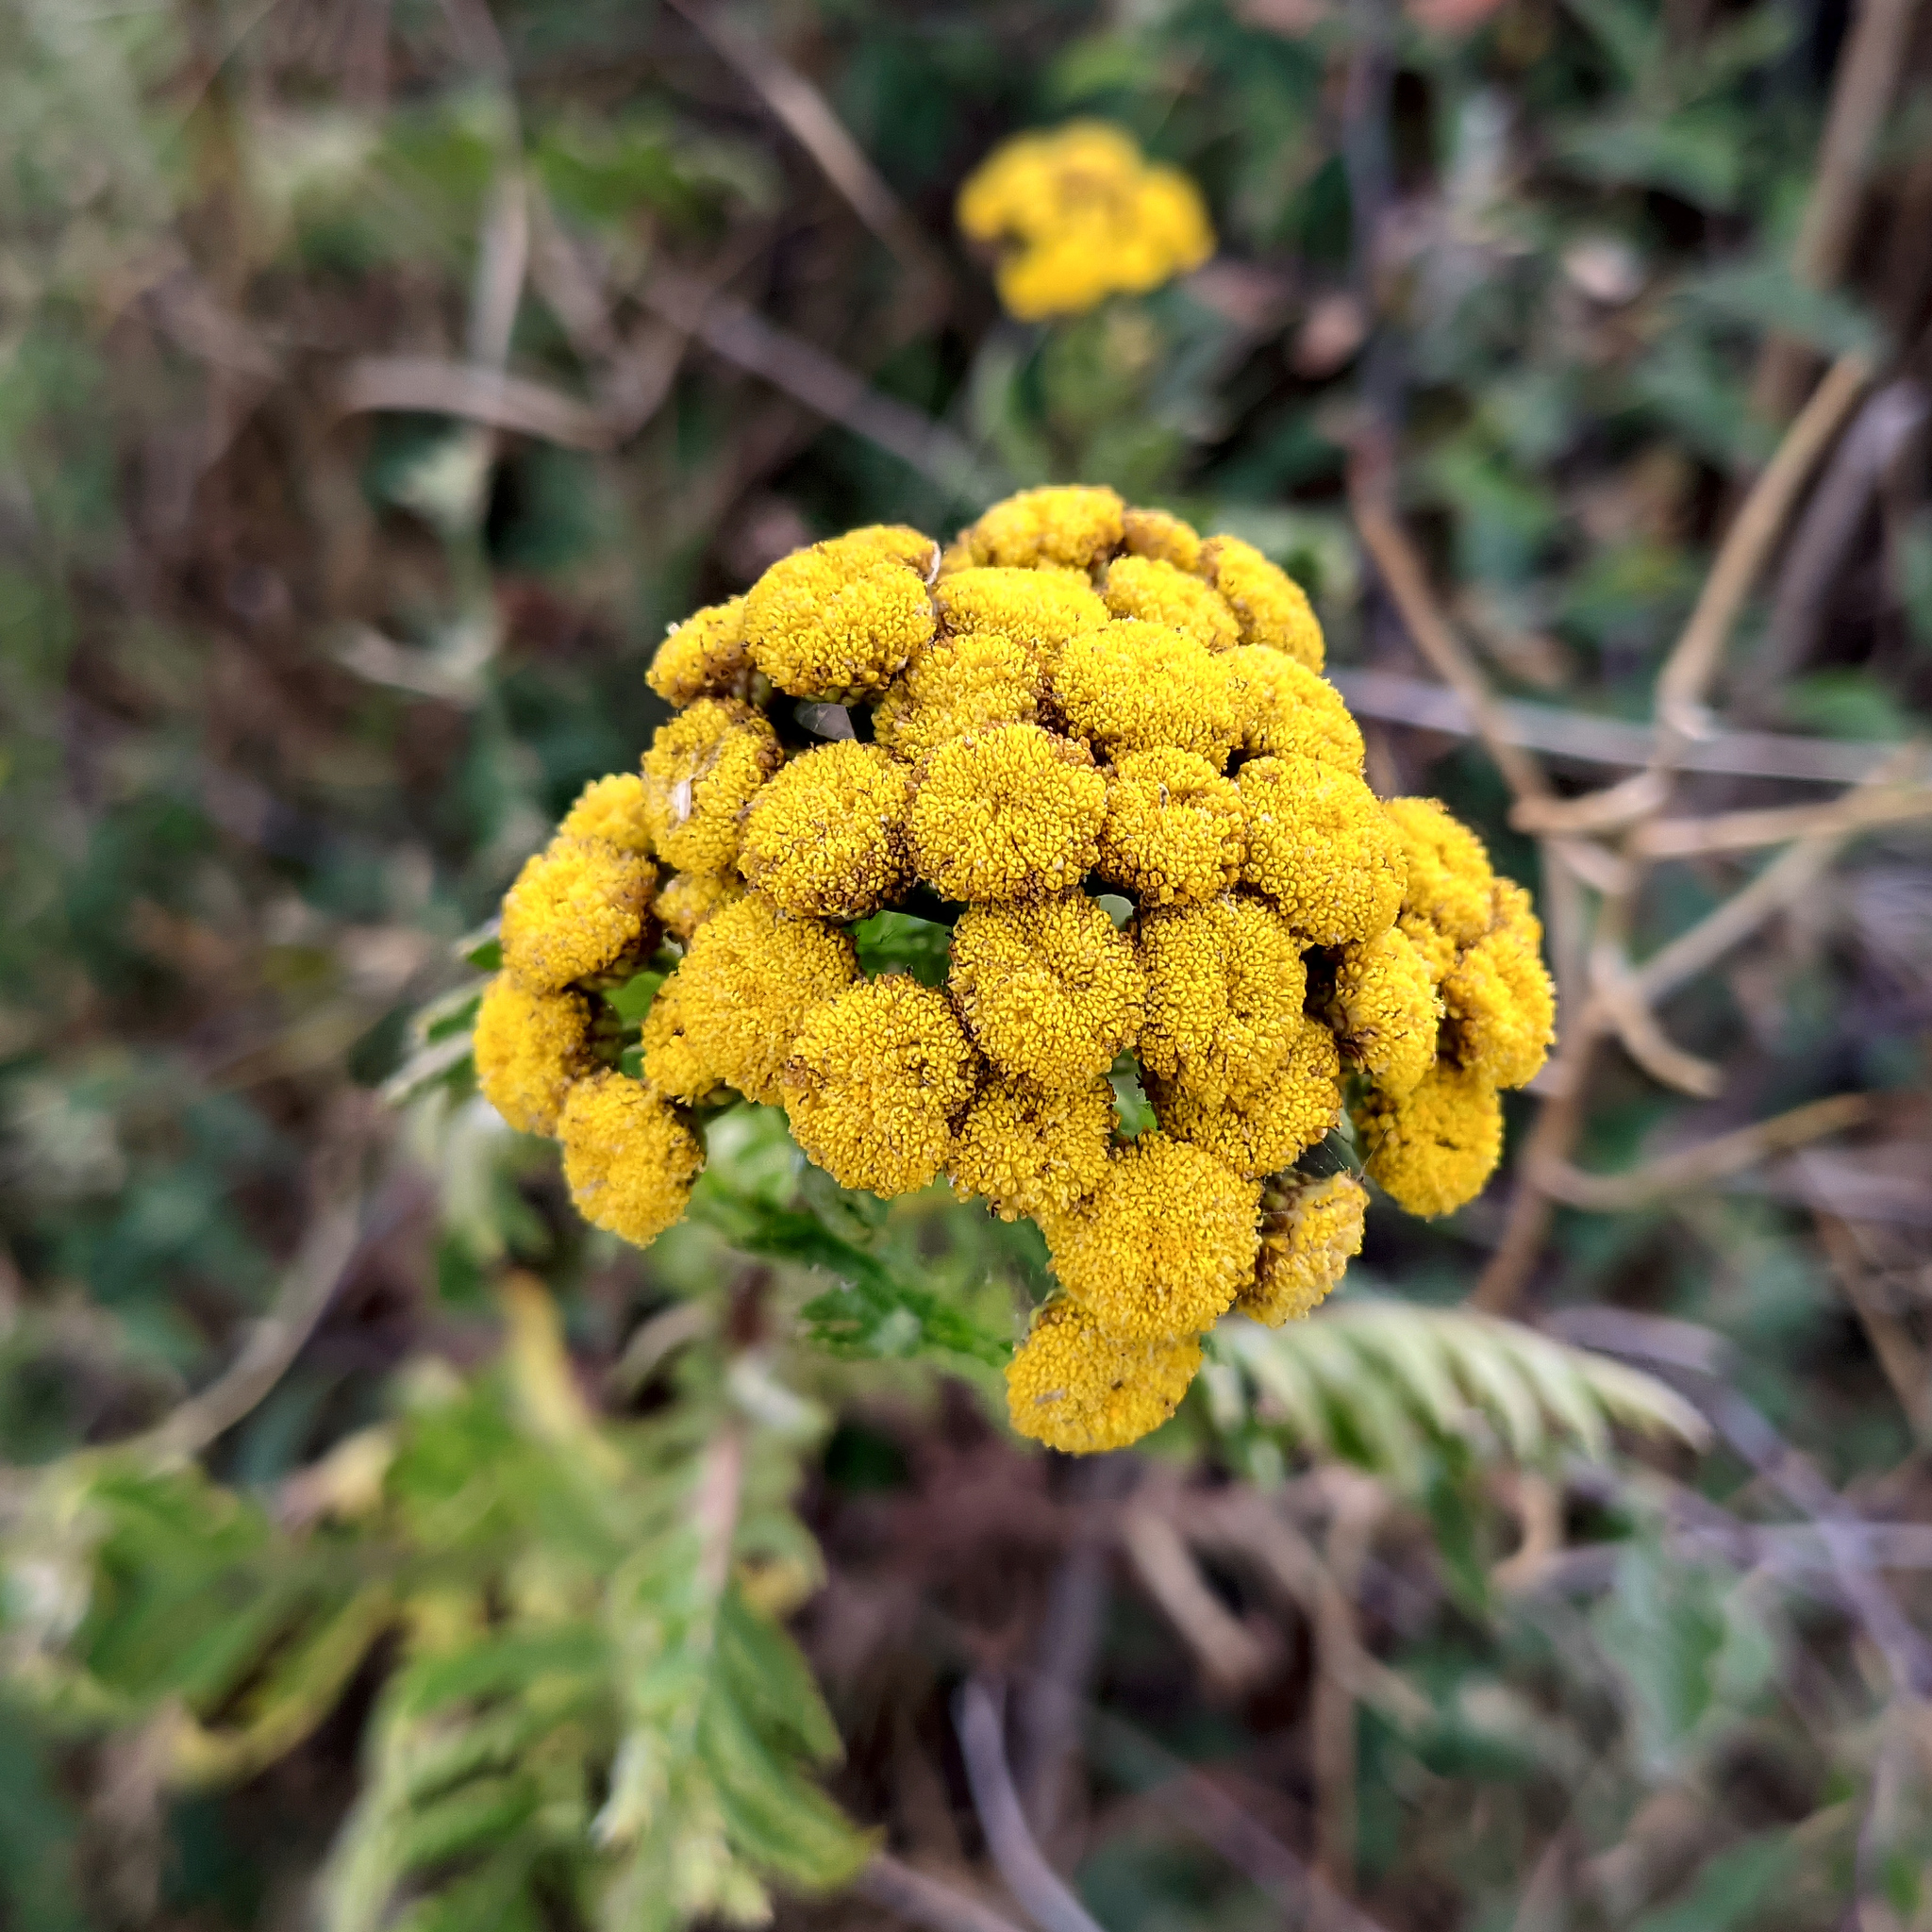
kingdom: Plantae
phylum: Tracheophyta
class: Magnoliopsida
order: Asterales
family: Asteraceae
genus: Tanacetum
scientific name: Tanacetum vulgare
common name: Common tansy
